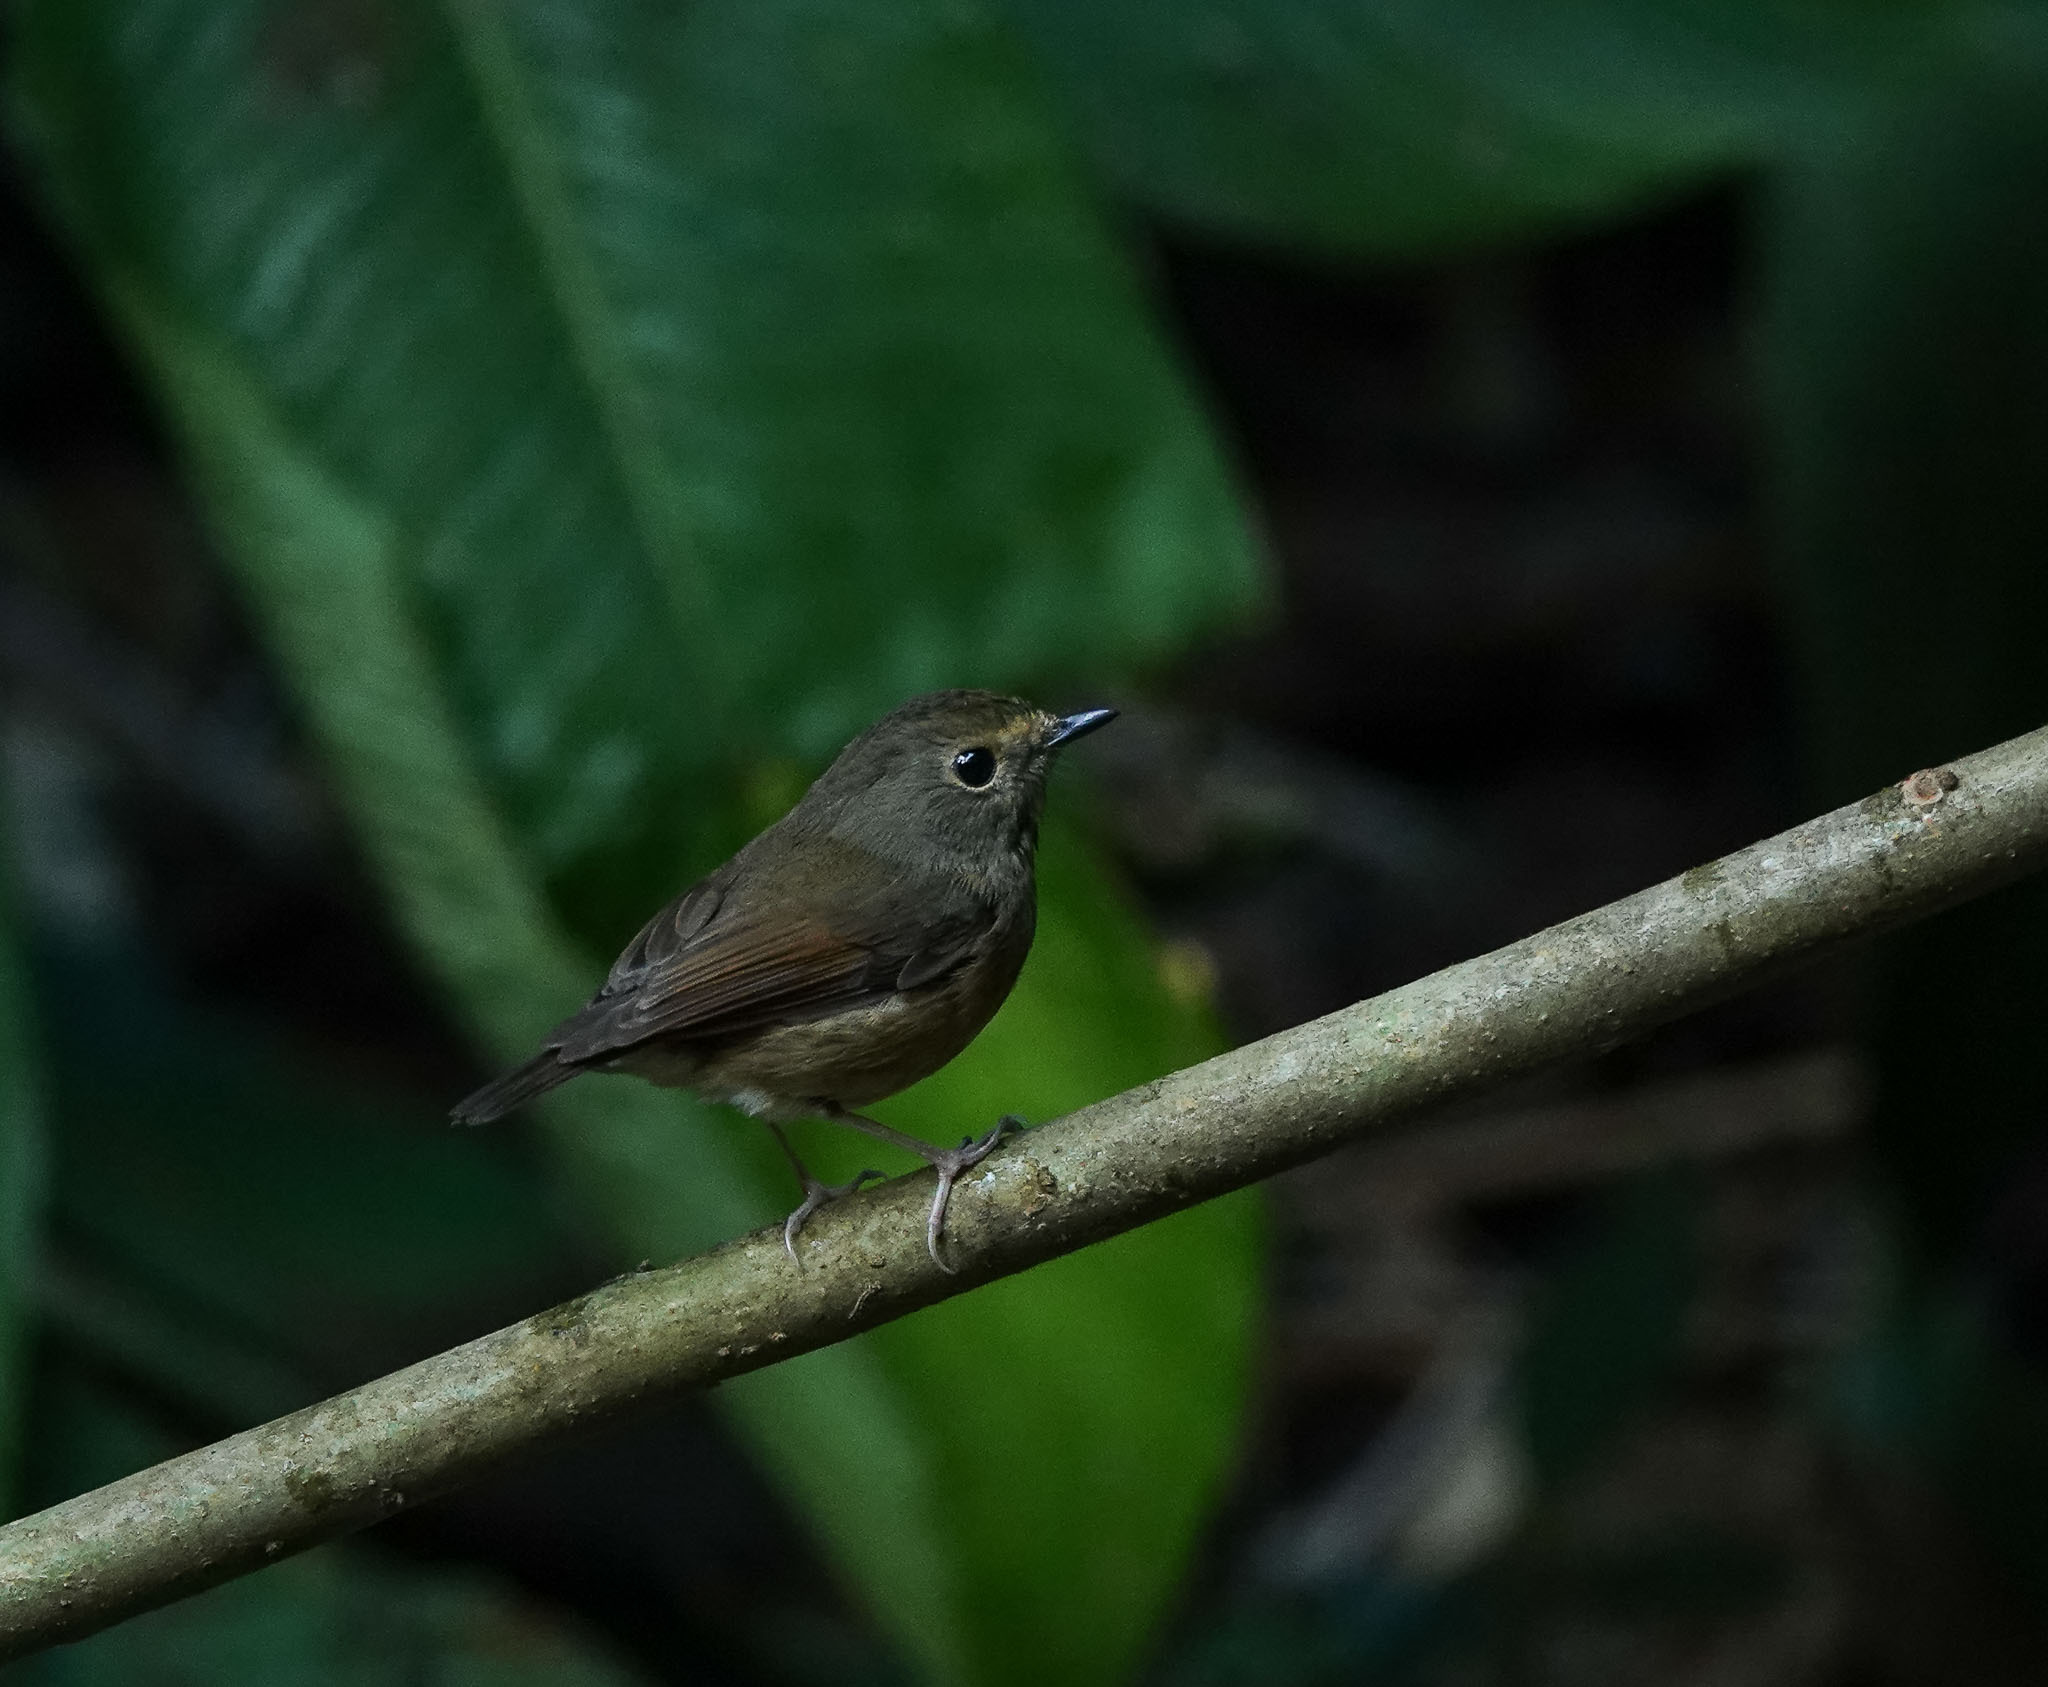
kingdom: Animalia
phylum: Chordata
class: Aves
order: Passeriformes
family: Muscicapidae
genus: Ficedula
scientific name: Ficedula hyperythra
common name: Snowy-browed flycatcher
